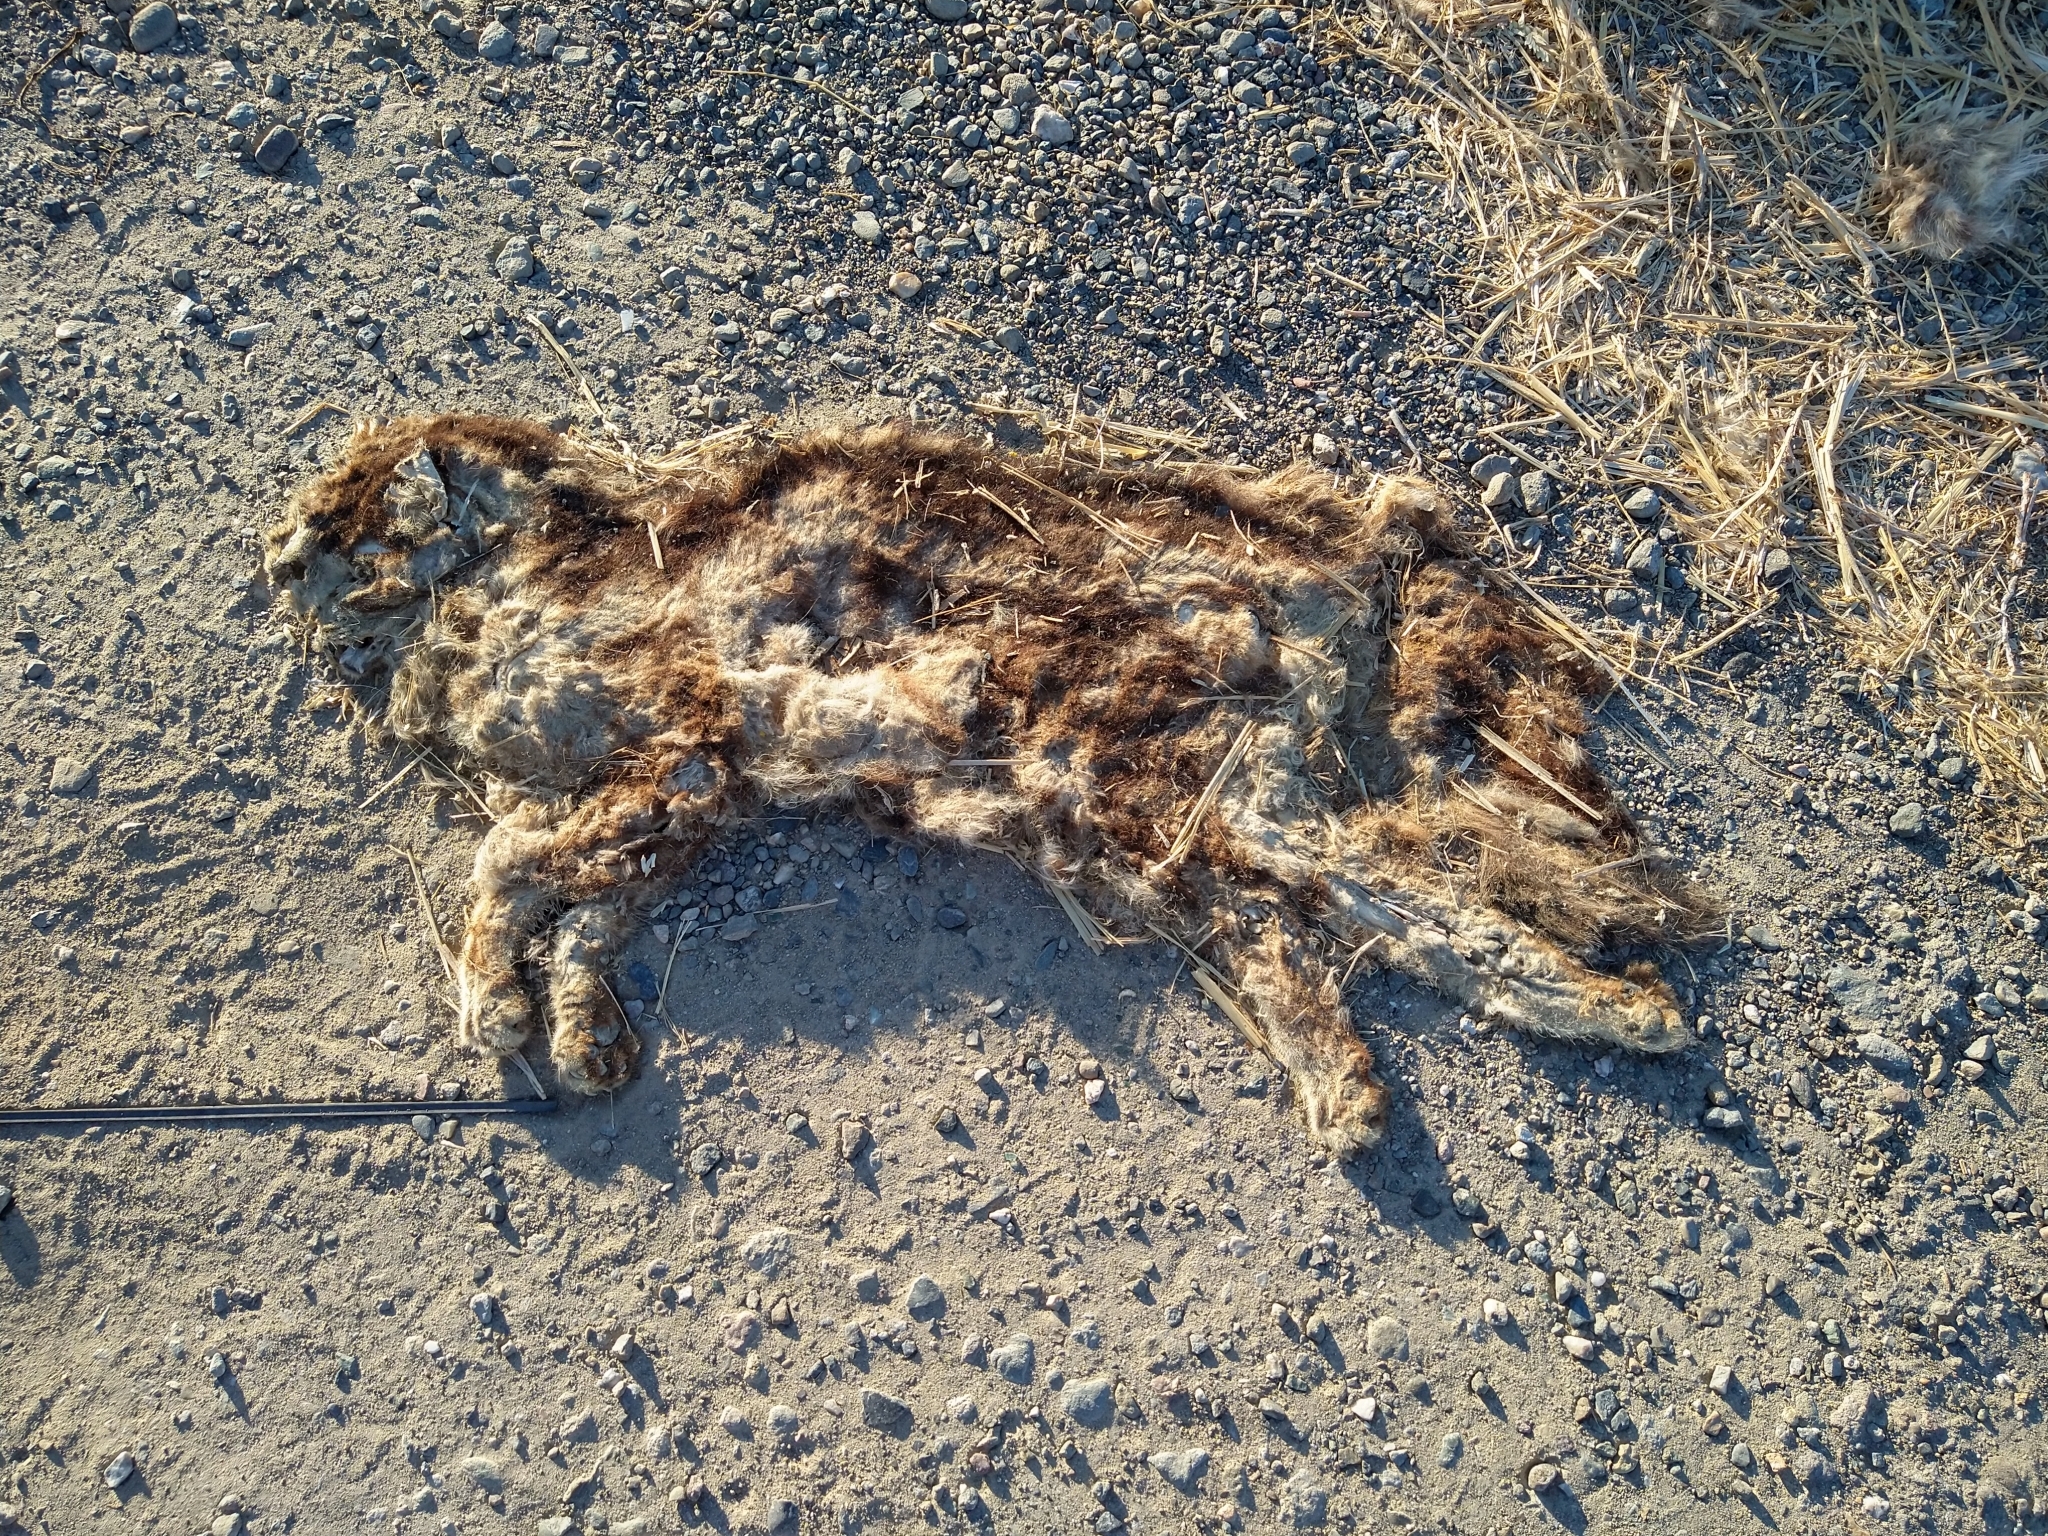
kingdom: Animalia
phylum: Chordata
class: Mammalia
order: Carnivora
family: Felidae
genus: Felis
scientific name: Felis catus
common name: Domestic cat
